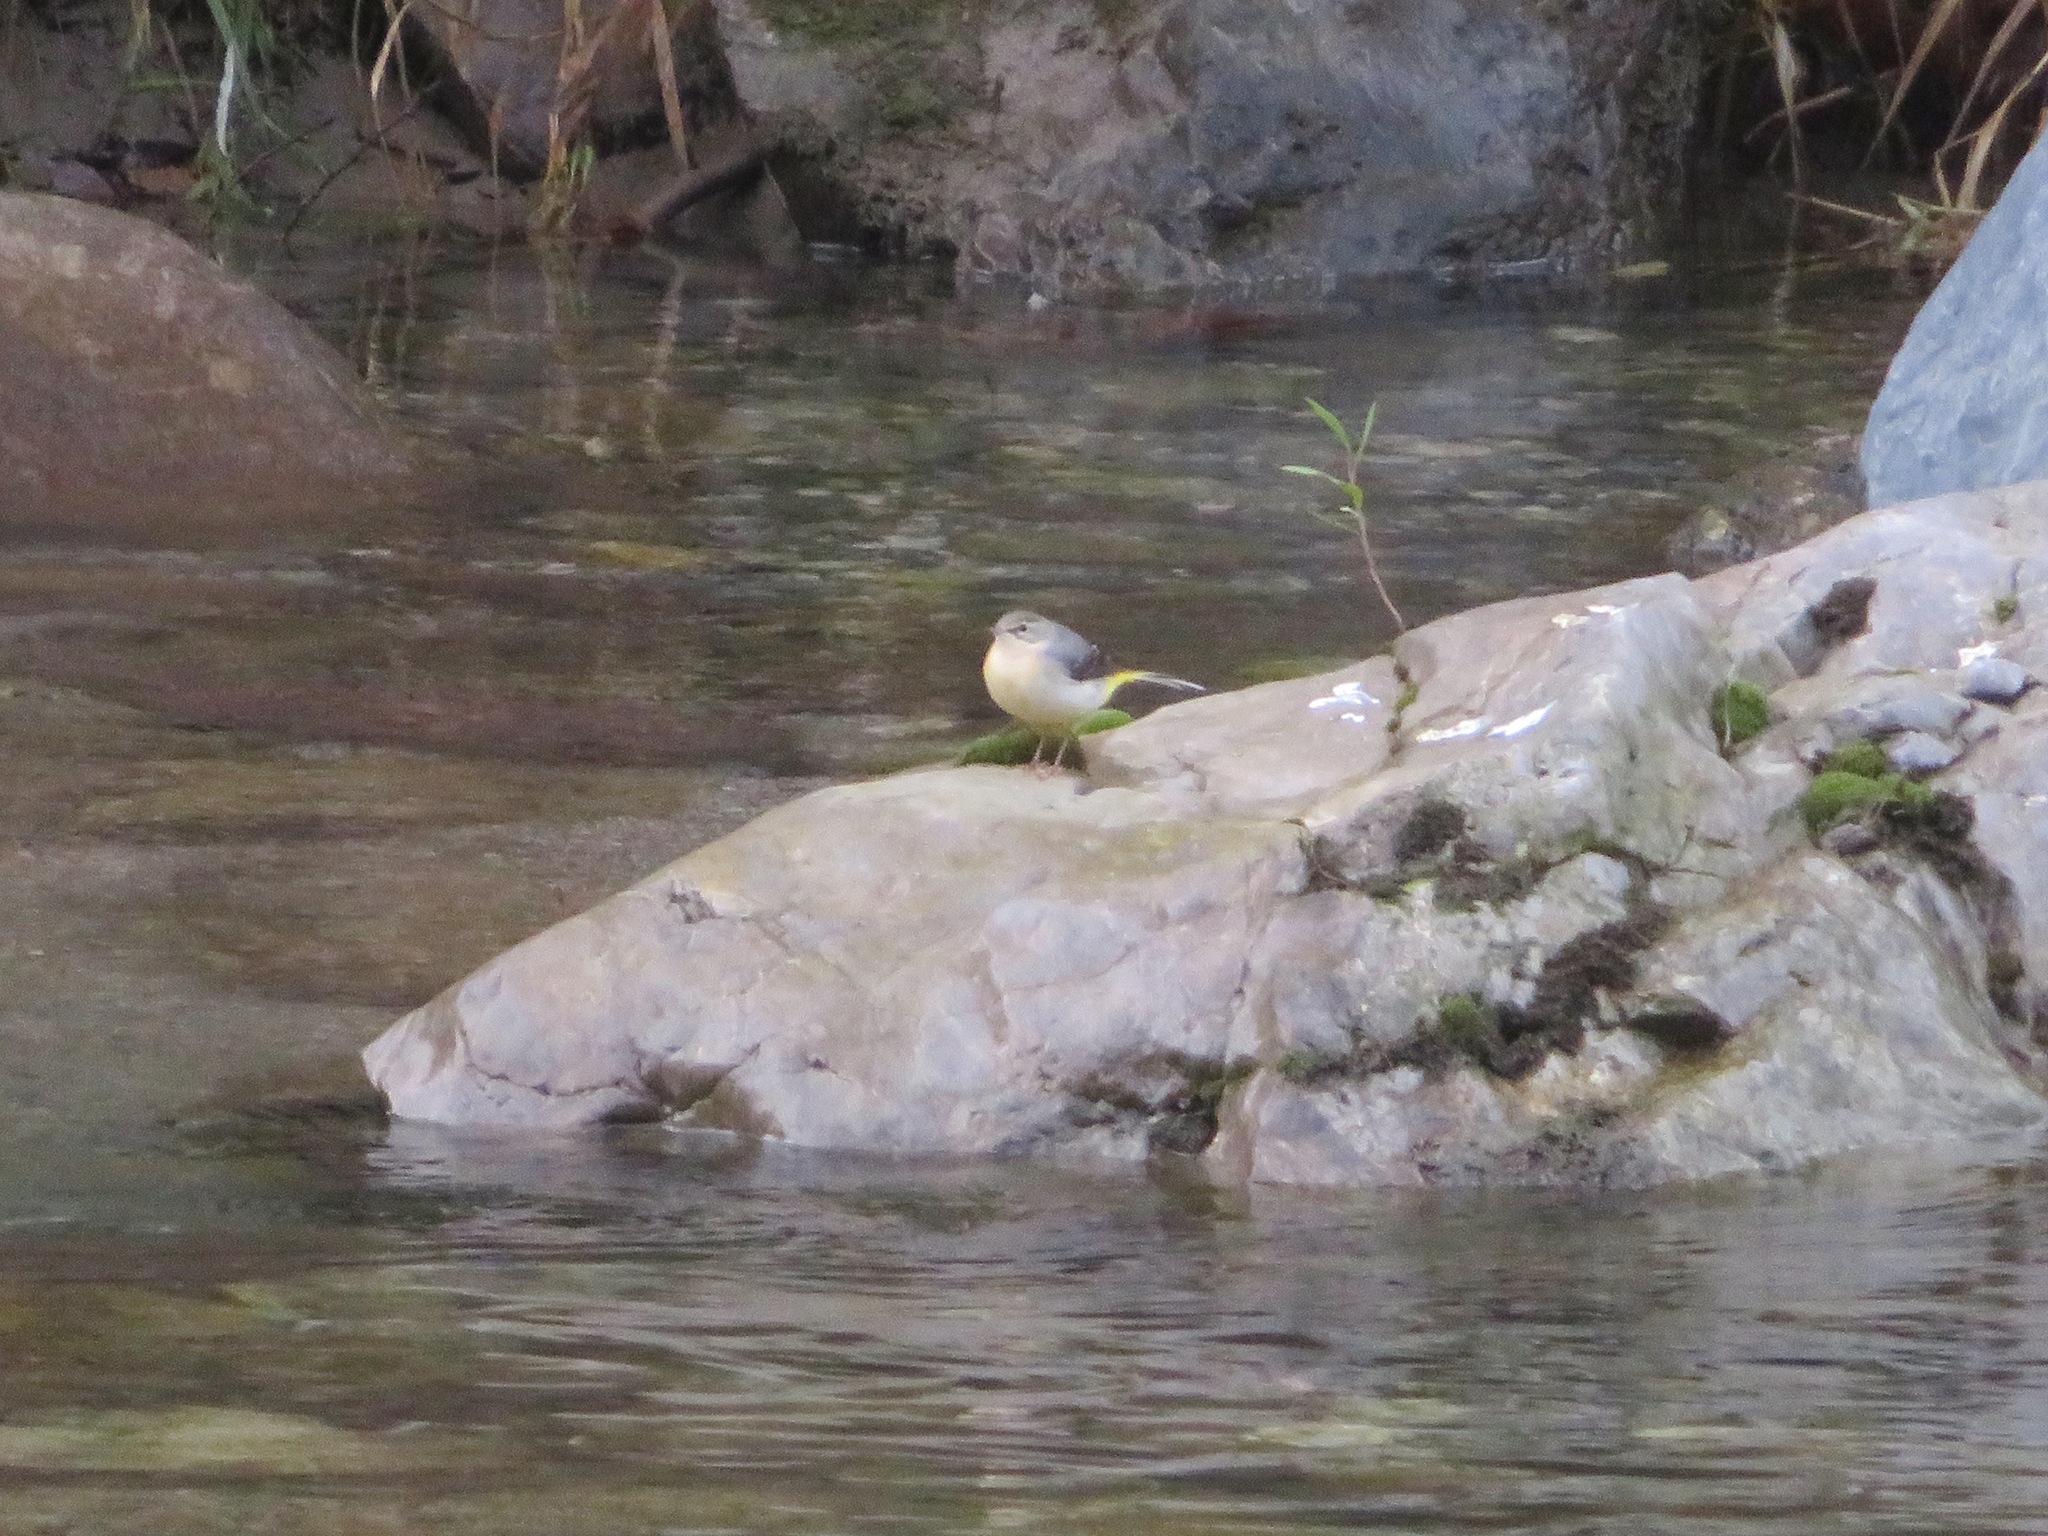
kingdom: Animalia
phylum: Chordata
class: Aves
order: Passeriformes
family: Motacillidae
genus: Motacilla
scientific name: Motacilla cinerea
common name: Grey wagtail
